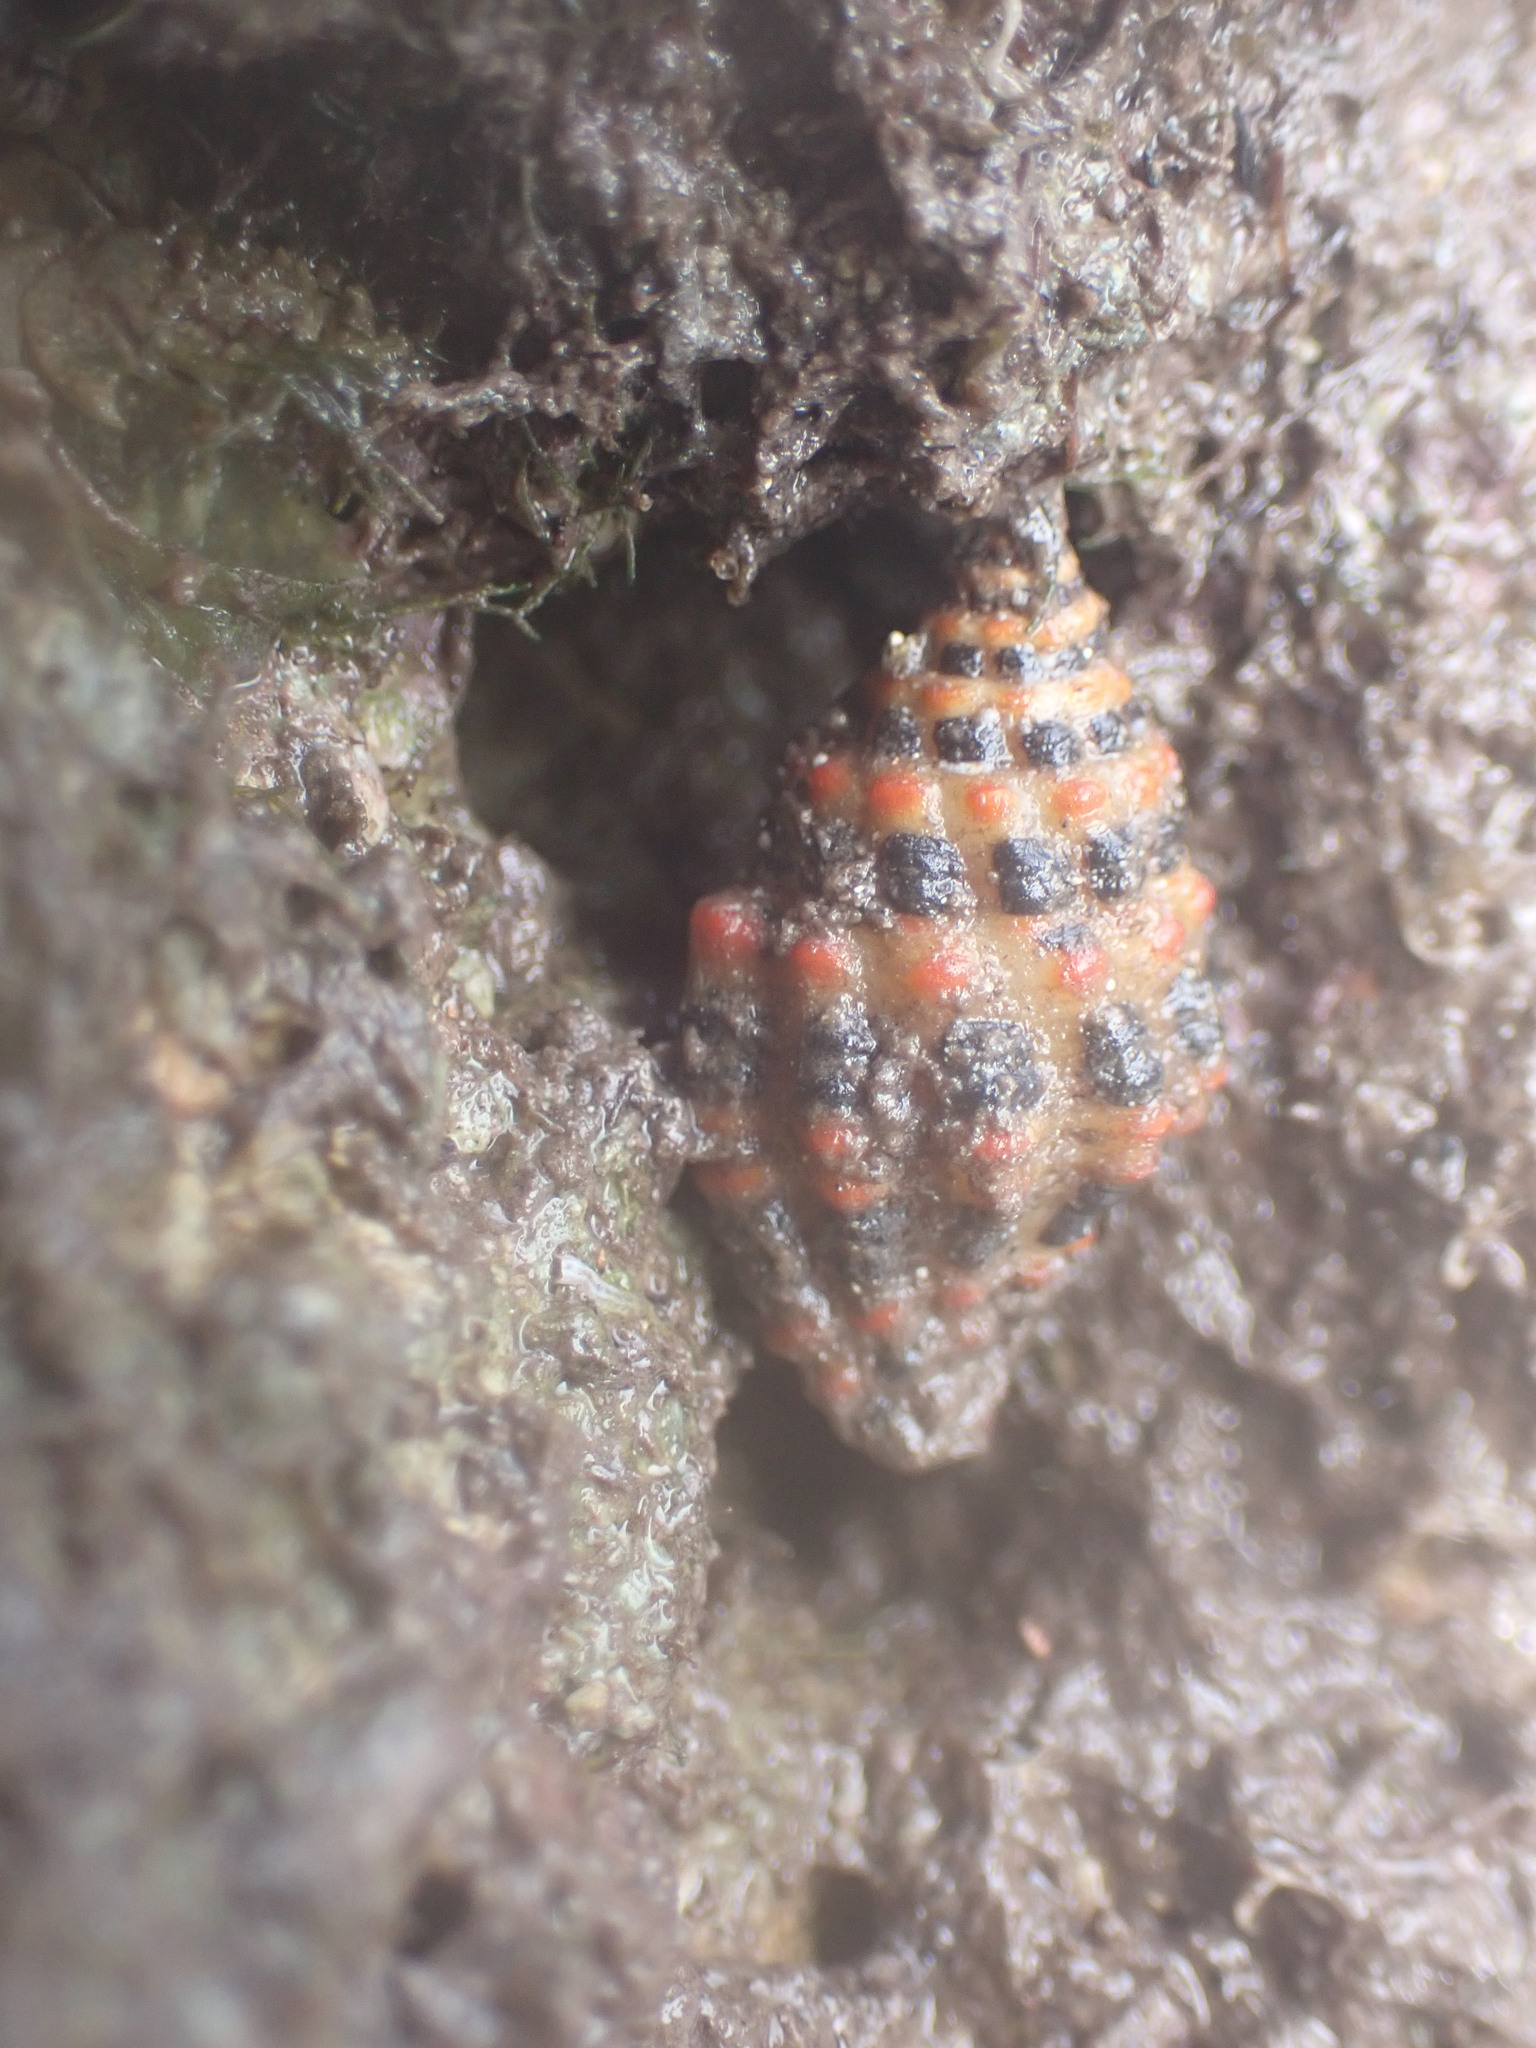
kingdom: Animalia
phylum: Mollusca
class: Gastropoda
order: Neogastropoda
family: Pisaniidae
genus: Engina
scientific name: Engina alveolata
